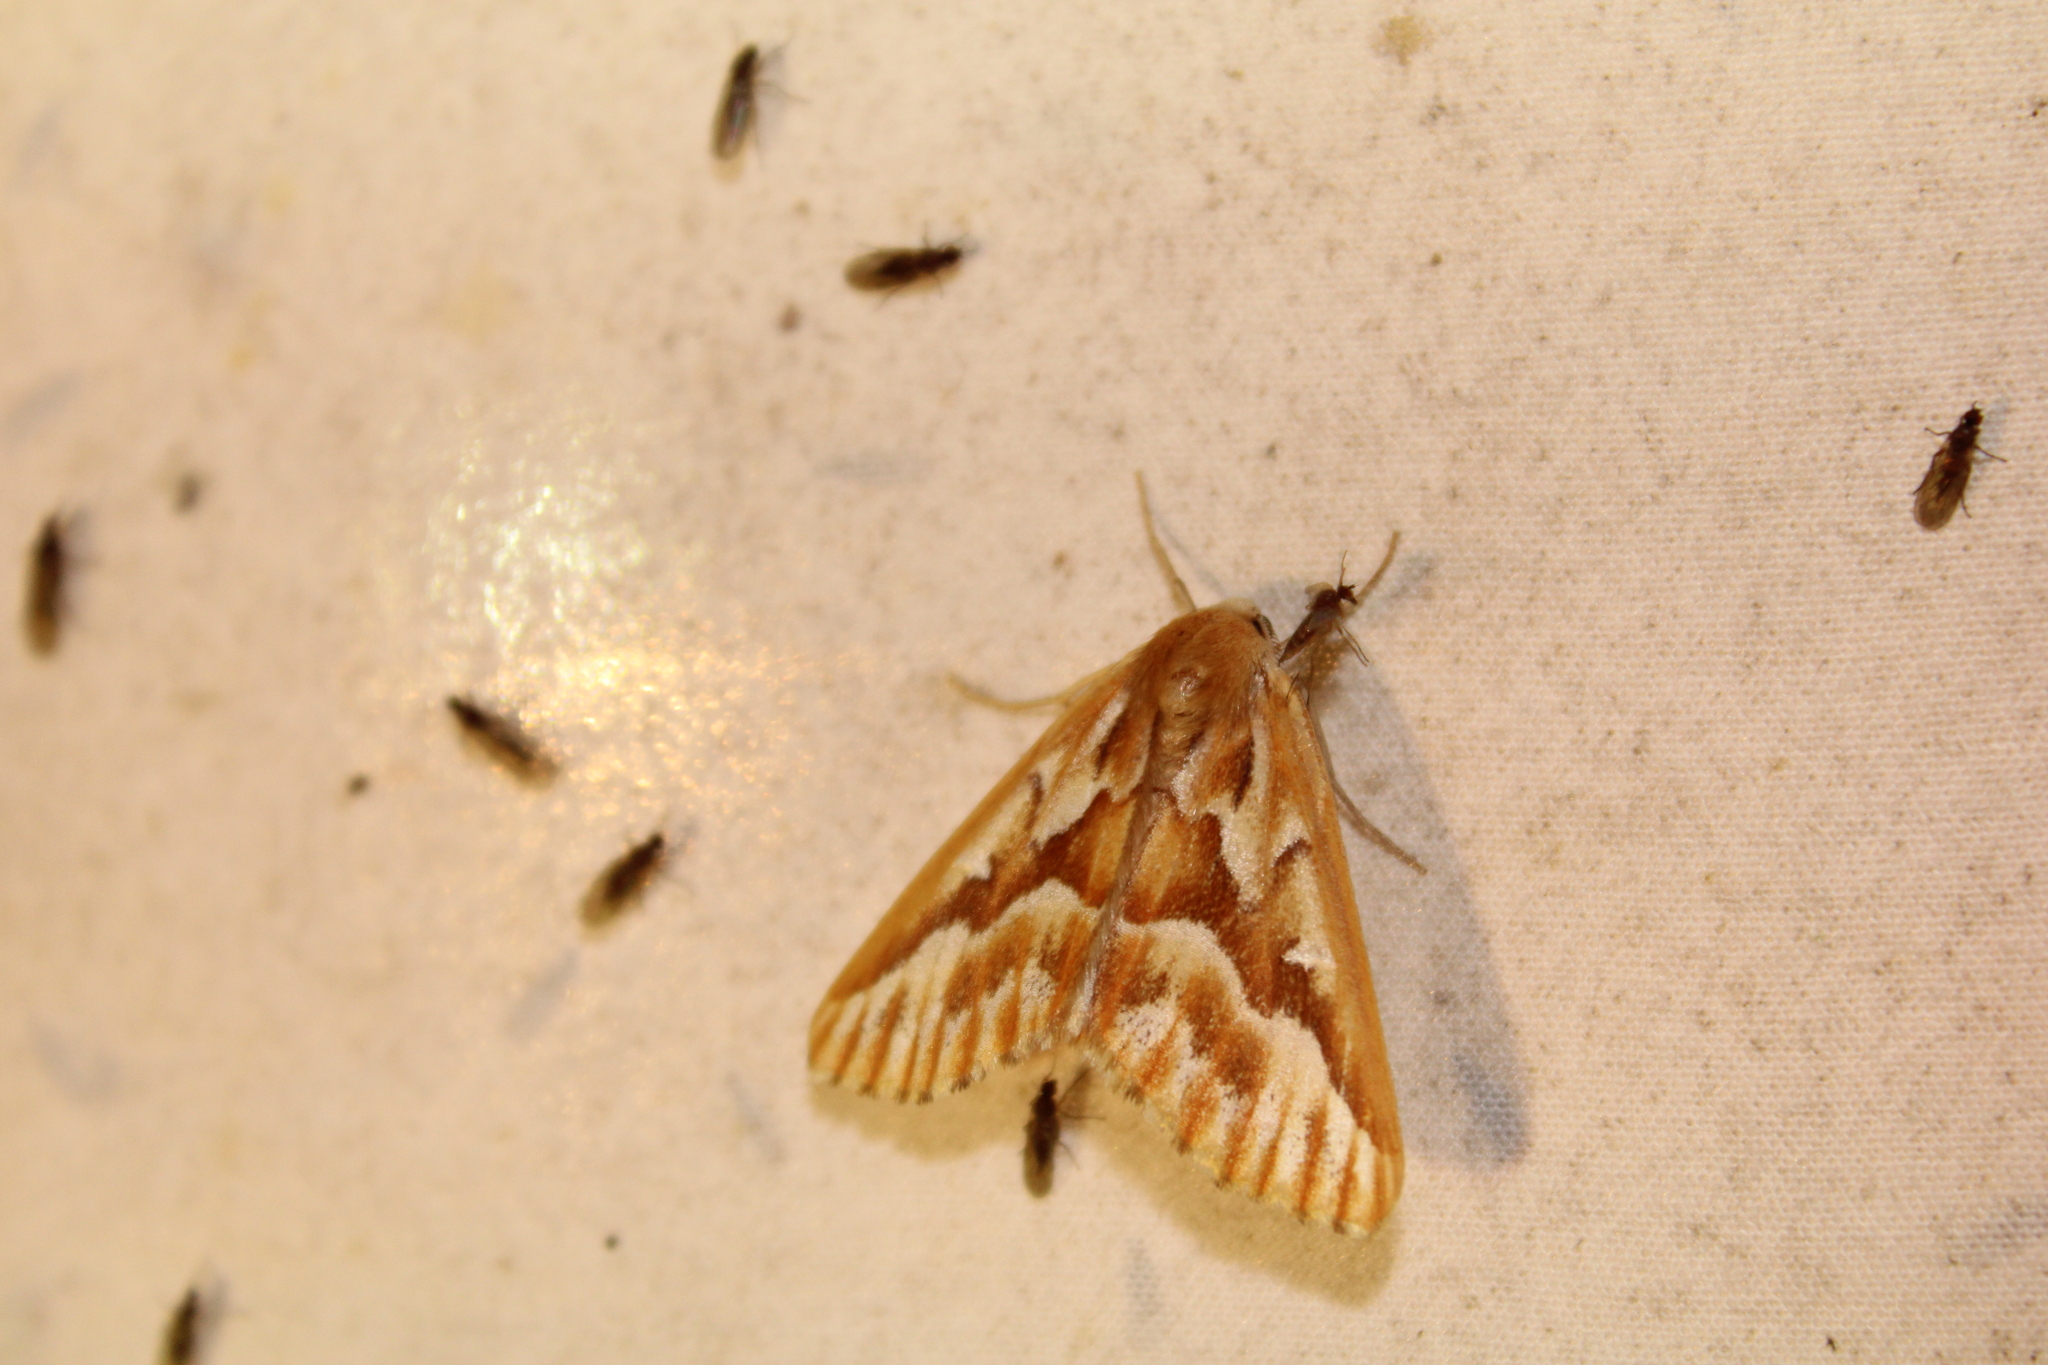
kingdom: Animalia
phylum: Arthropoda
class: Insecta
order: Lepidoptera
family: Geometridae
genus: Caripeta
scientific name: Caripeta piniata
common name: Northern pine looper moth
